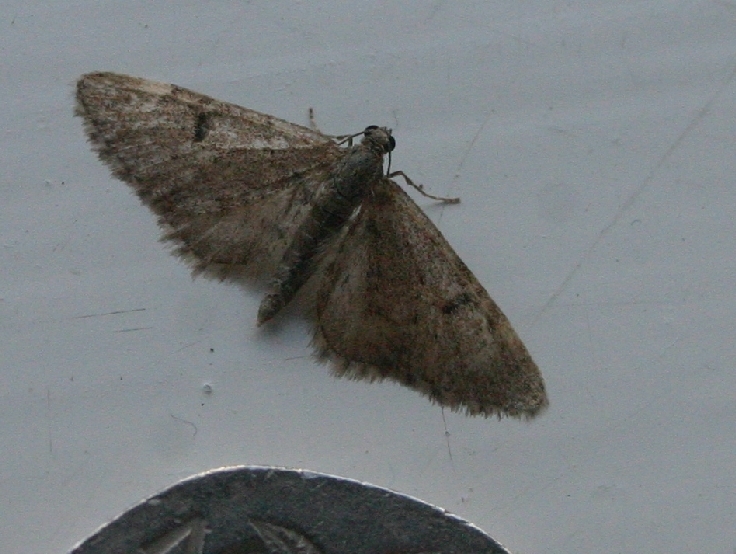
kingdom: Animalia
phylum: Arthropoda
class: Insecta
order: Lepidoptera
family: Geometridae
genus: Eupithecia
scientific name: Eupithecia indigata
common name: Ochreous pug
